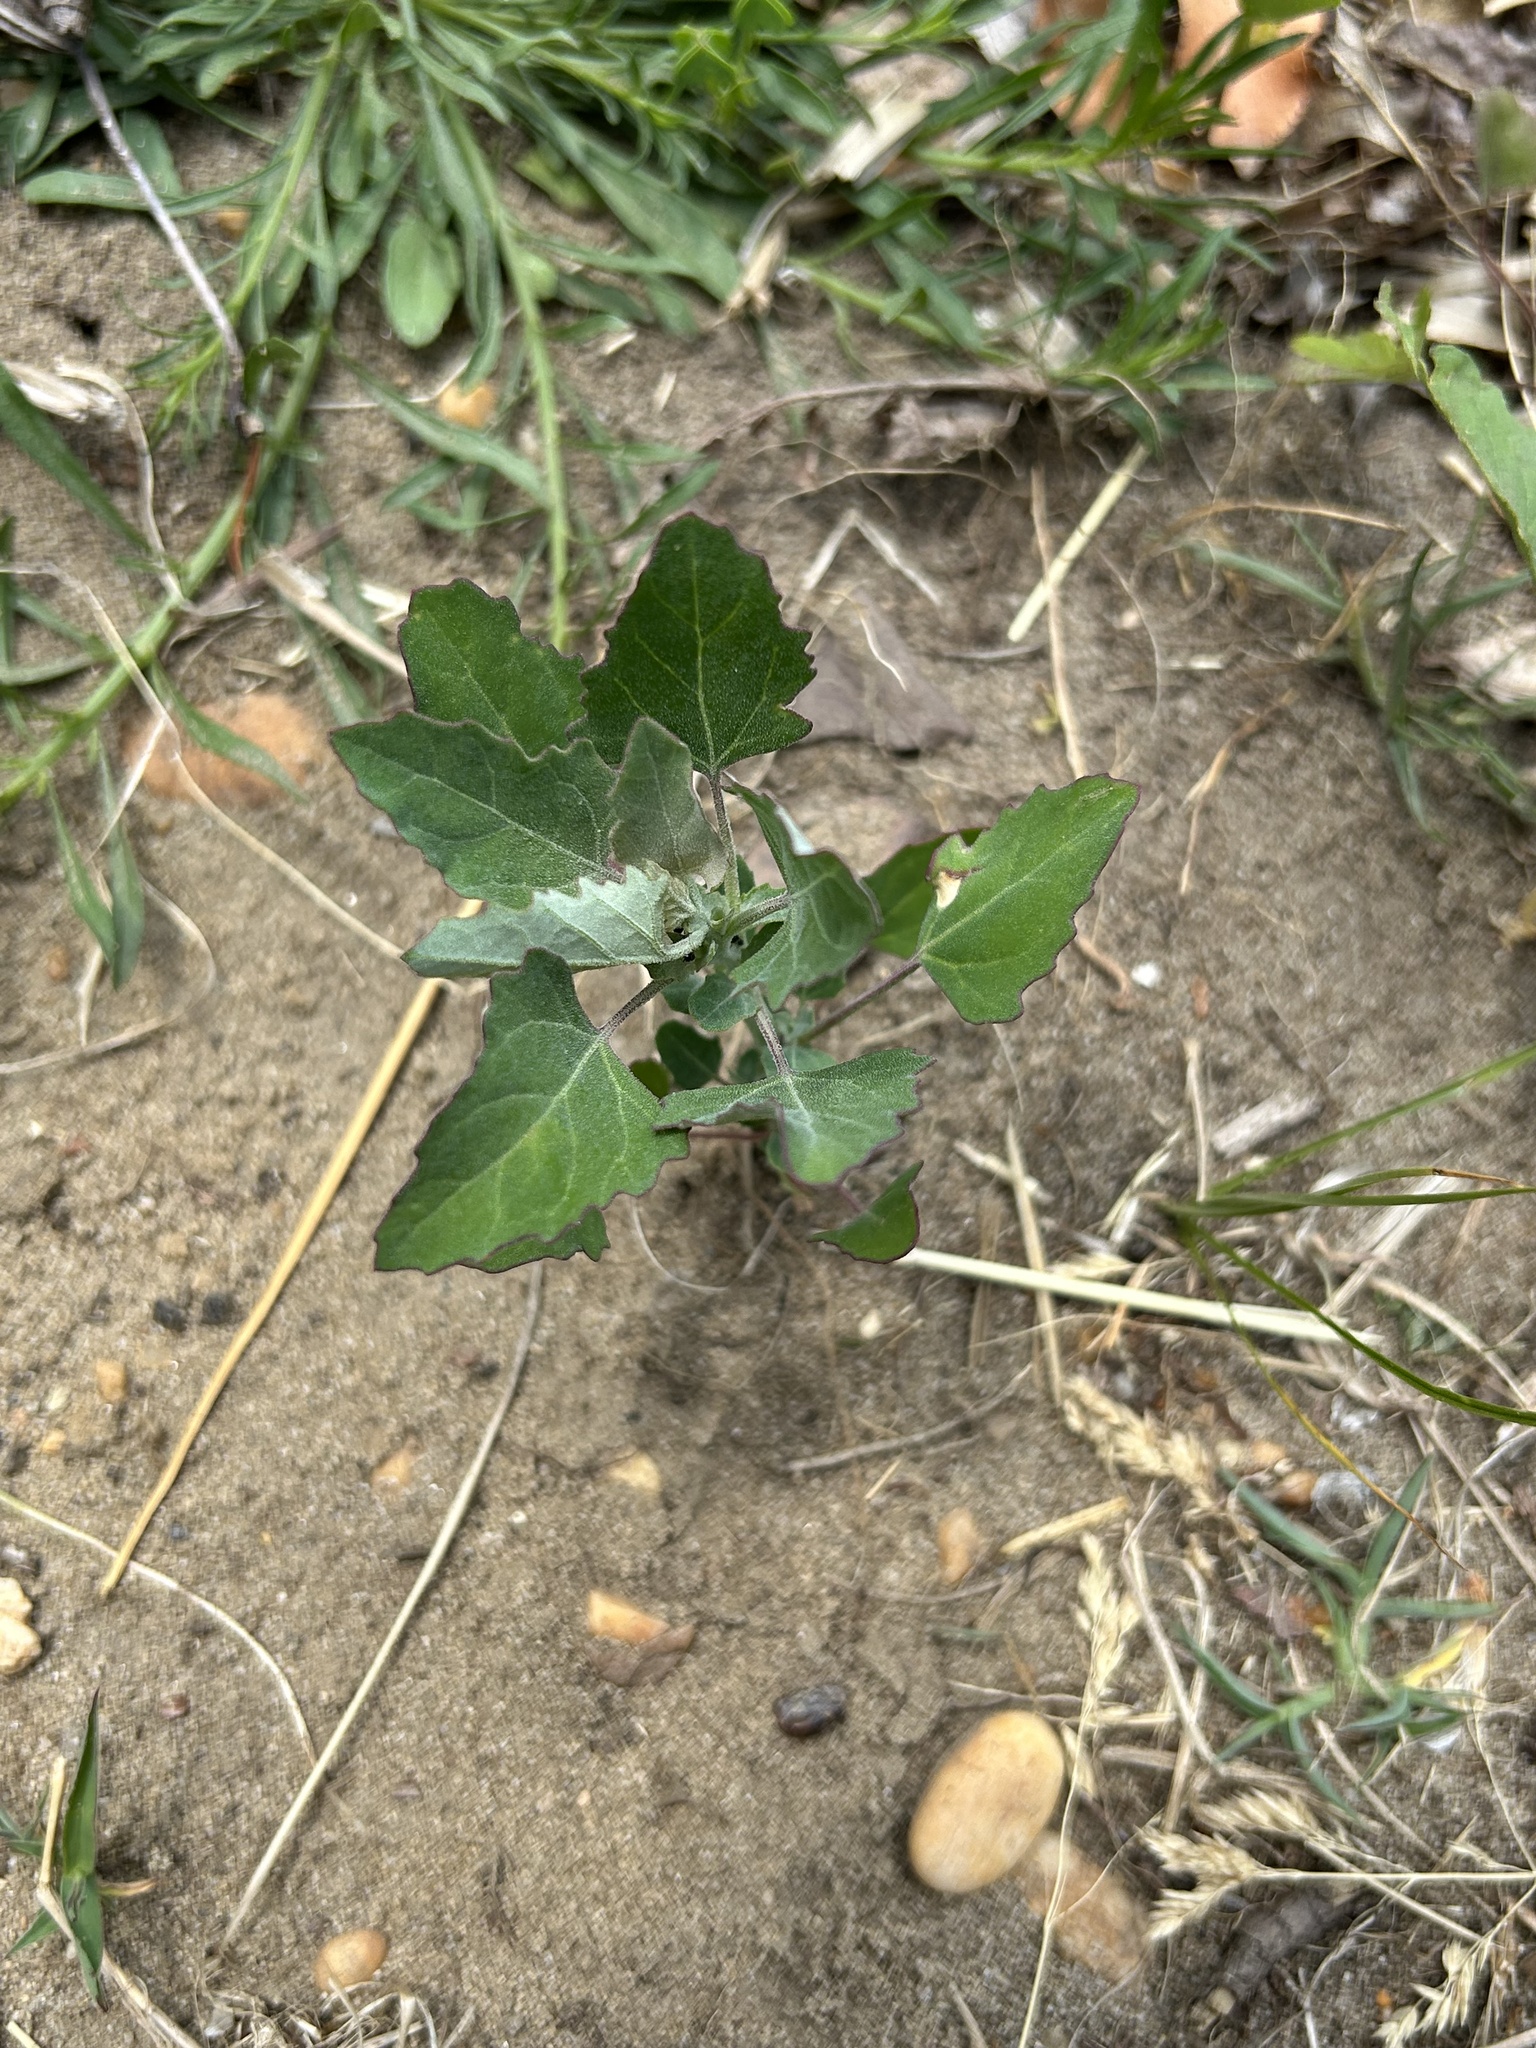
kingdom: Plantae
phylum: Tracheophyta
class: Magnoliopsida
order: Caryophyllales
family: Amaranthaceae
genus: Chenopodium
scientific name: Chenopodium album
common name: Fat-hen
